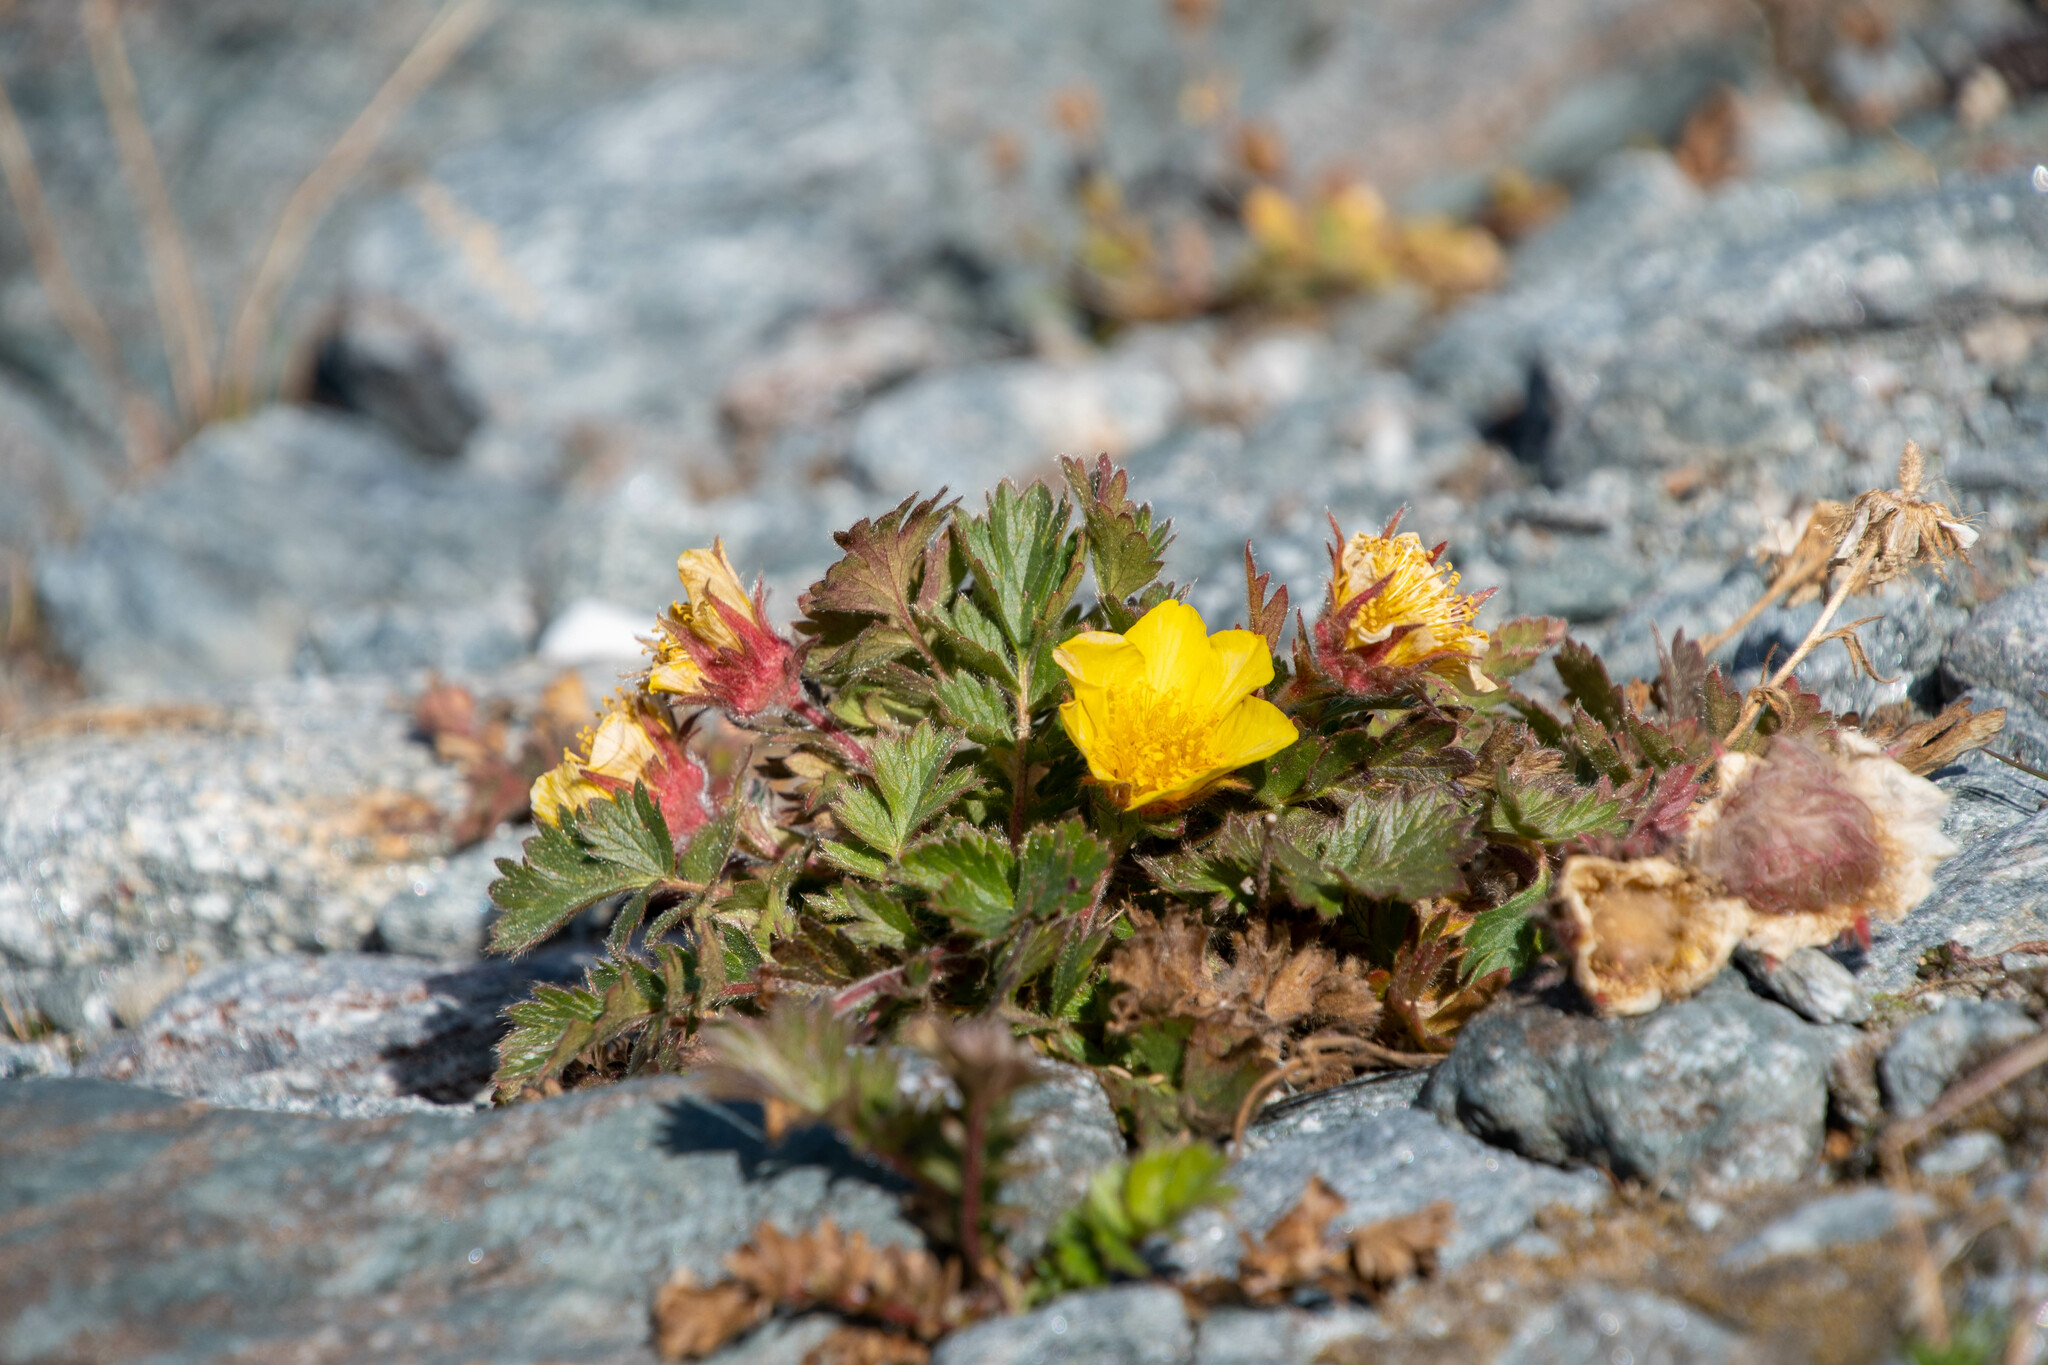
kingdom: Plantae
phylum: Tracheophyta
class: Magnoliopsida
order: Rosales
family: Rosaceae
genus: Geum
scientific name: Geum reptans
